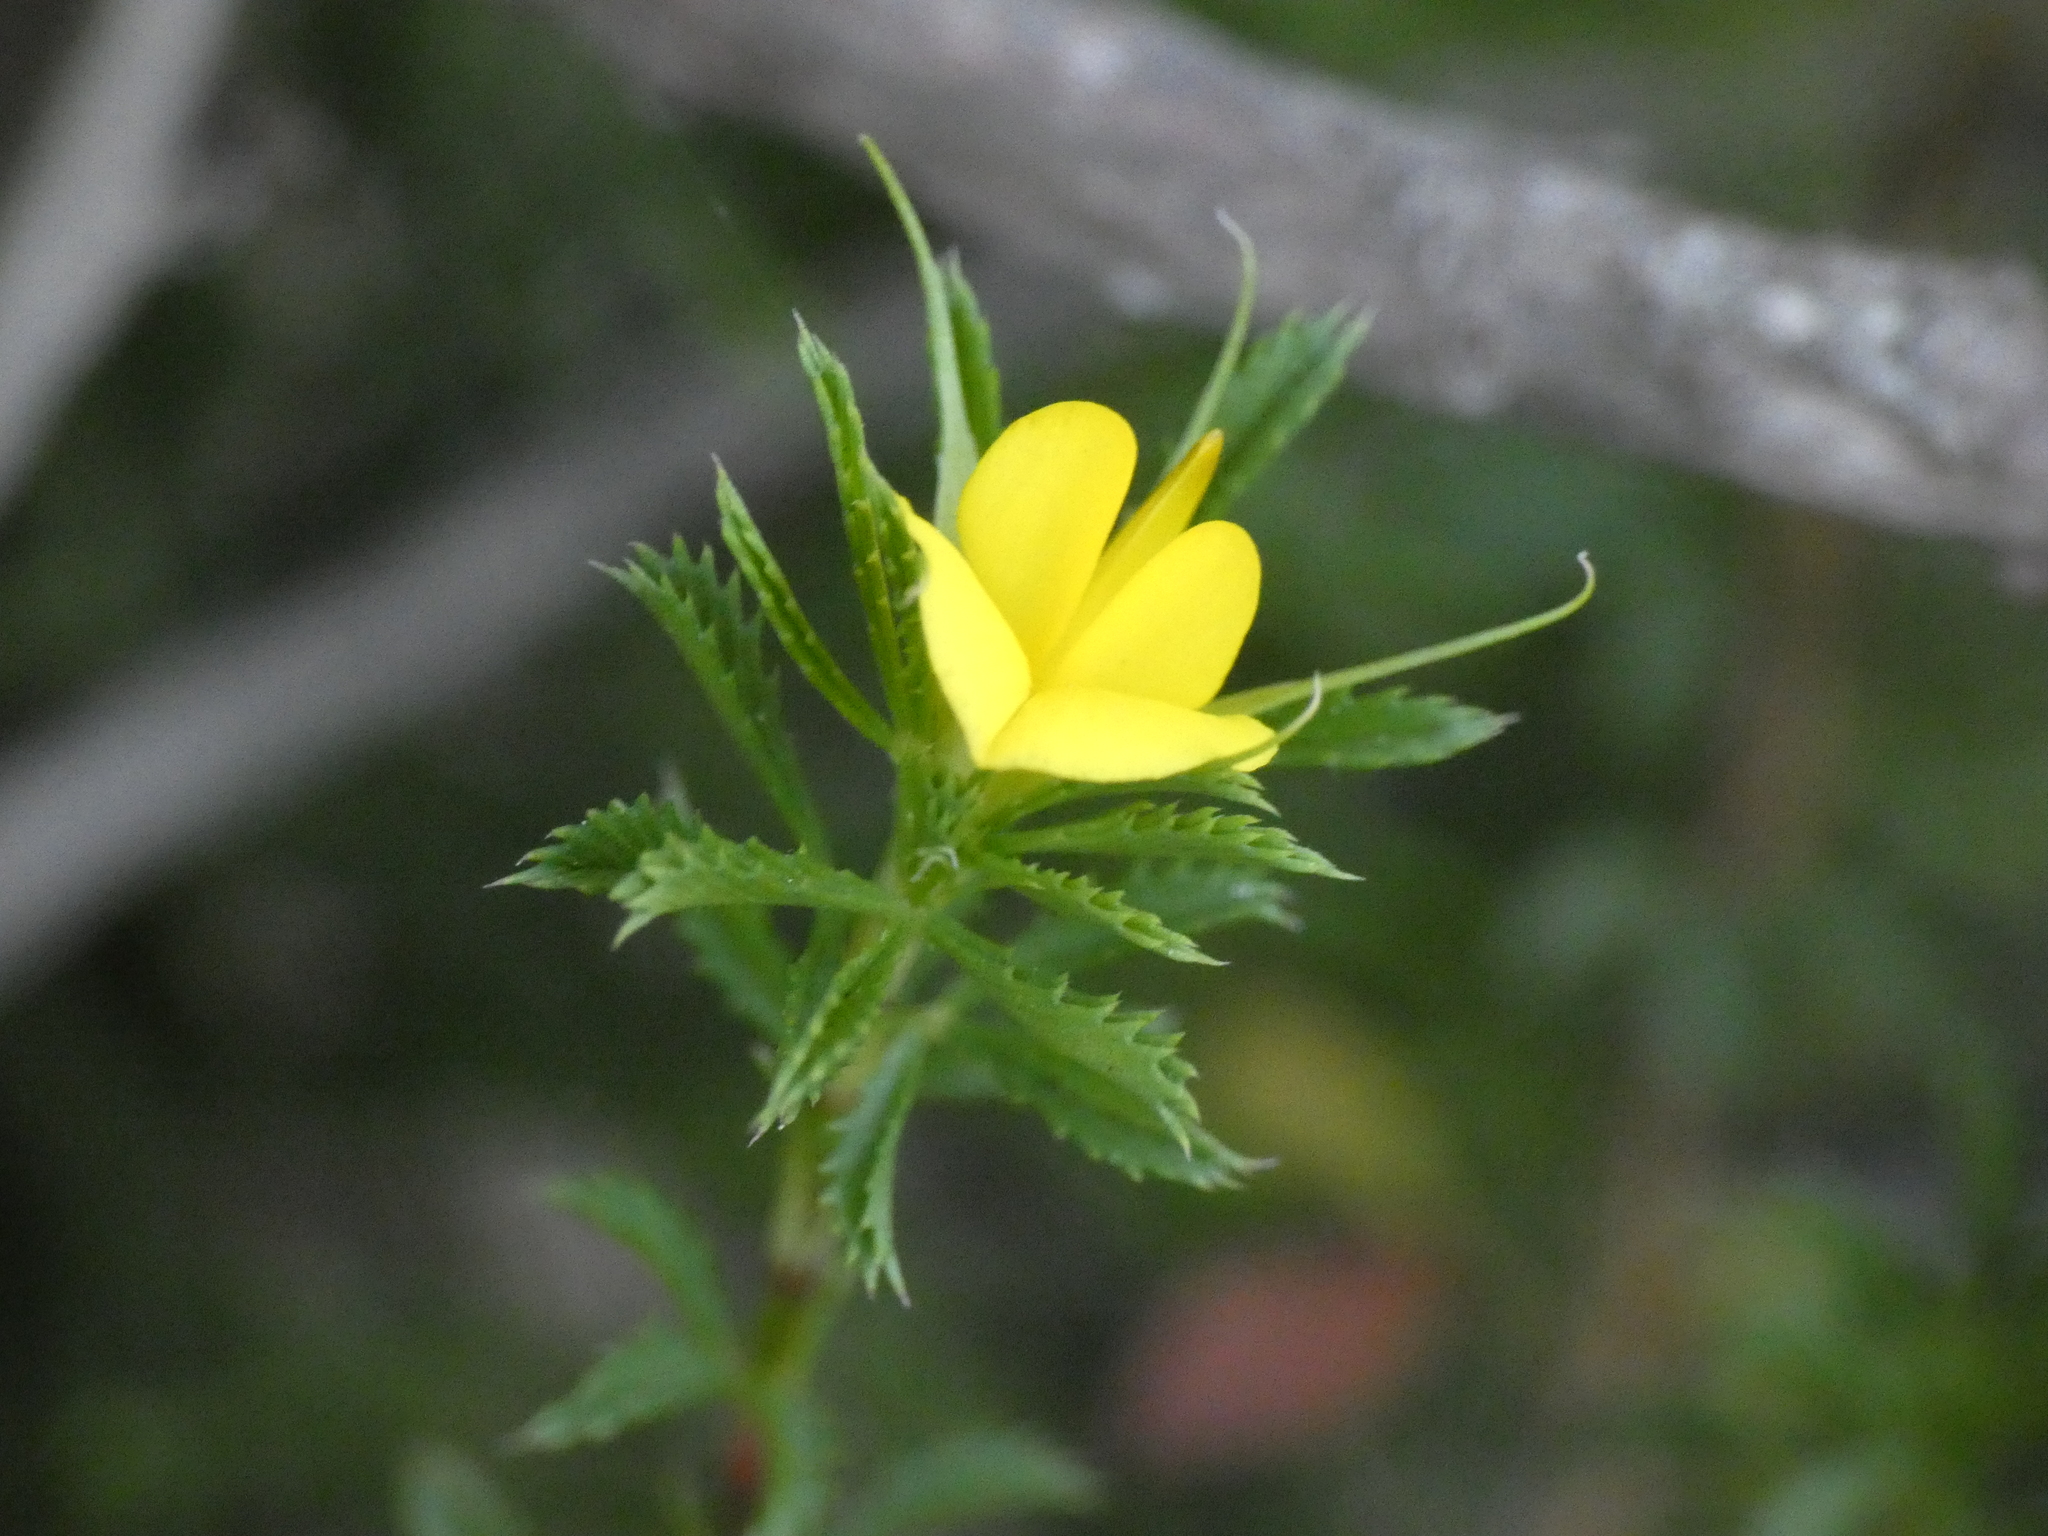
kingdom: Plantae
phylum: Tracheophyta
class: Magnoliopsida
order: Fabales
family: Fabaceae
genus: Ononis
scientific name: Ononis minutissima
